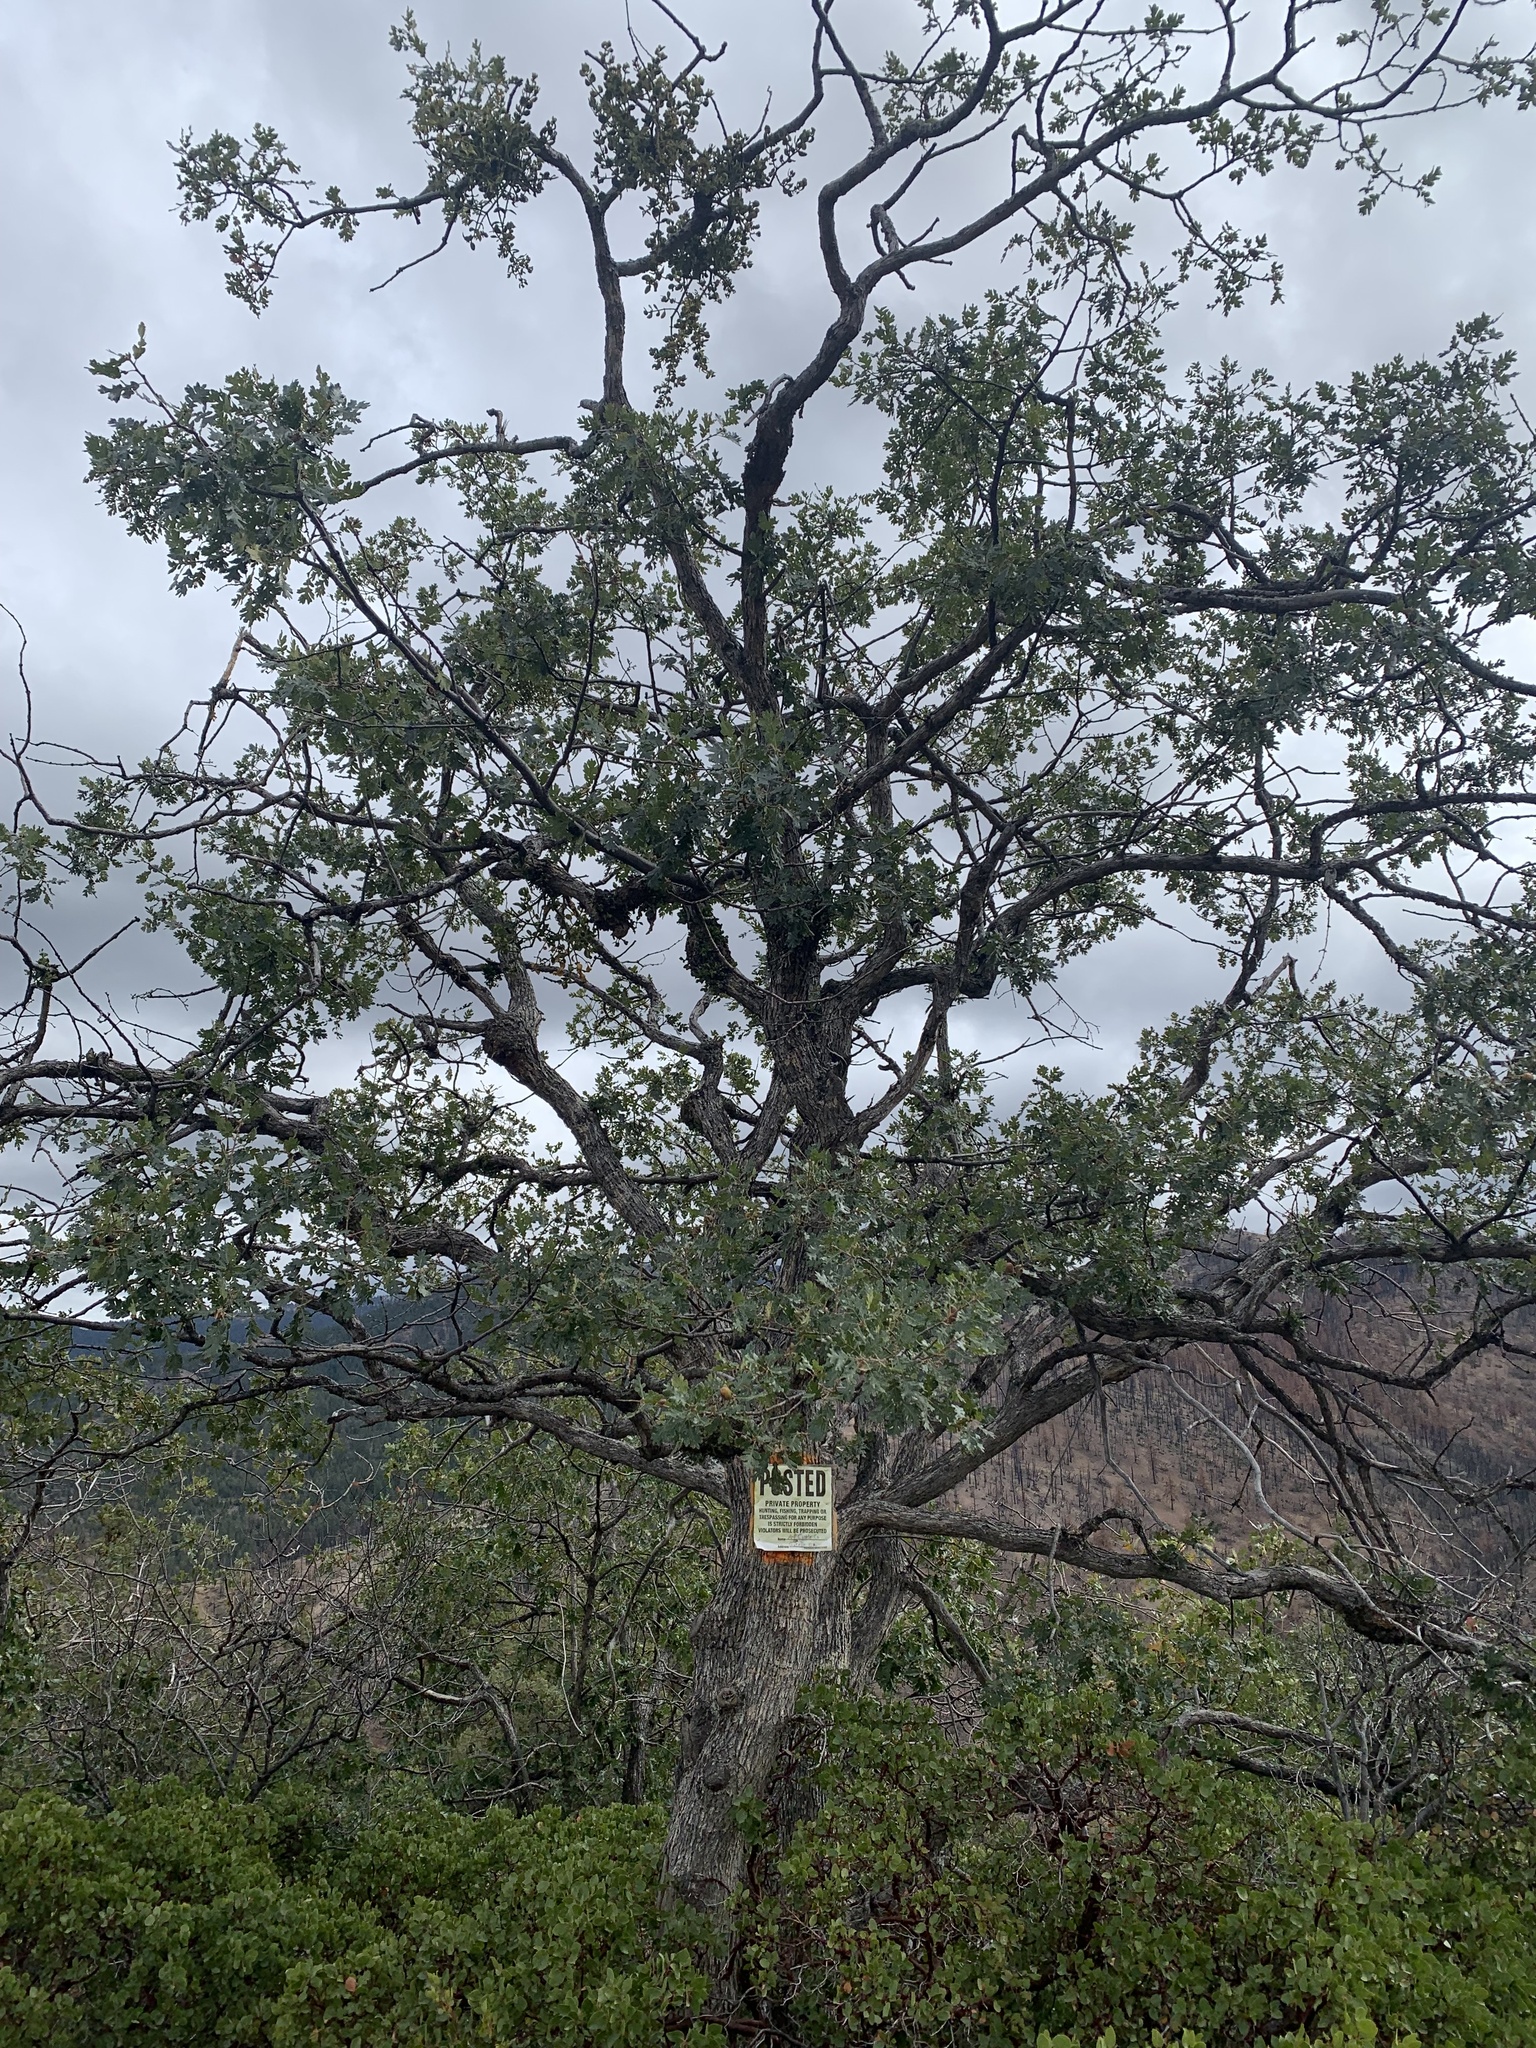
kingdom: Plantae
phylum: Tracheophyta
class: Magnoliopsida
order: Fagales
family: Fagaceae
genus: Quercus
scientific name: Quercus garryana
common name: Garry oak
